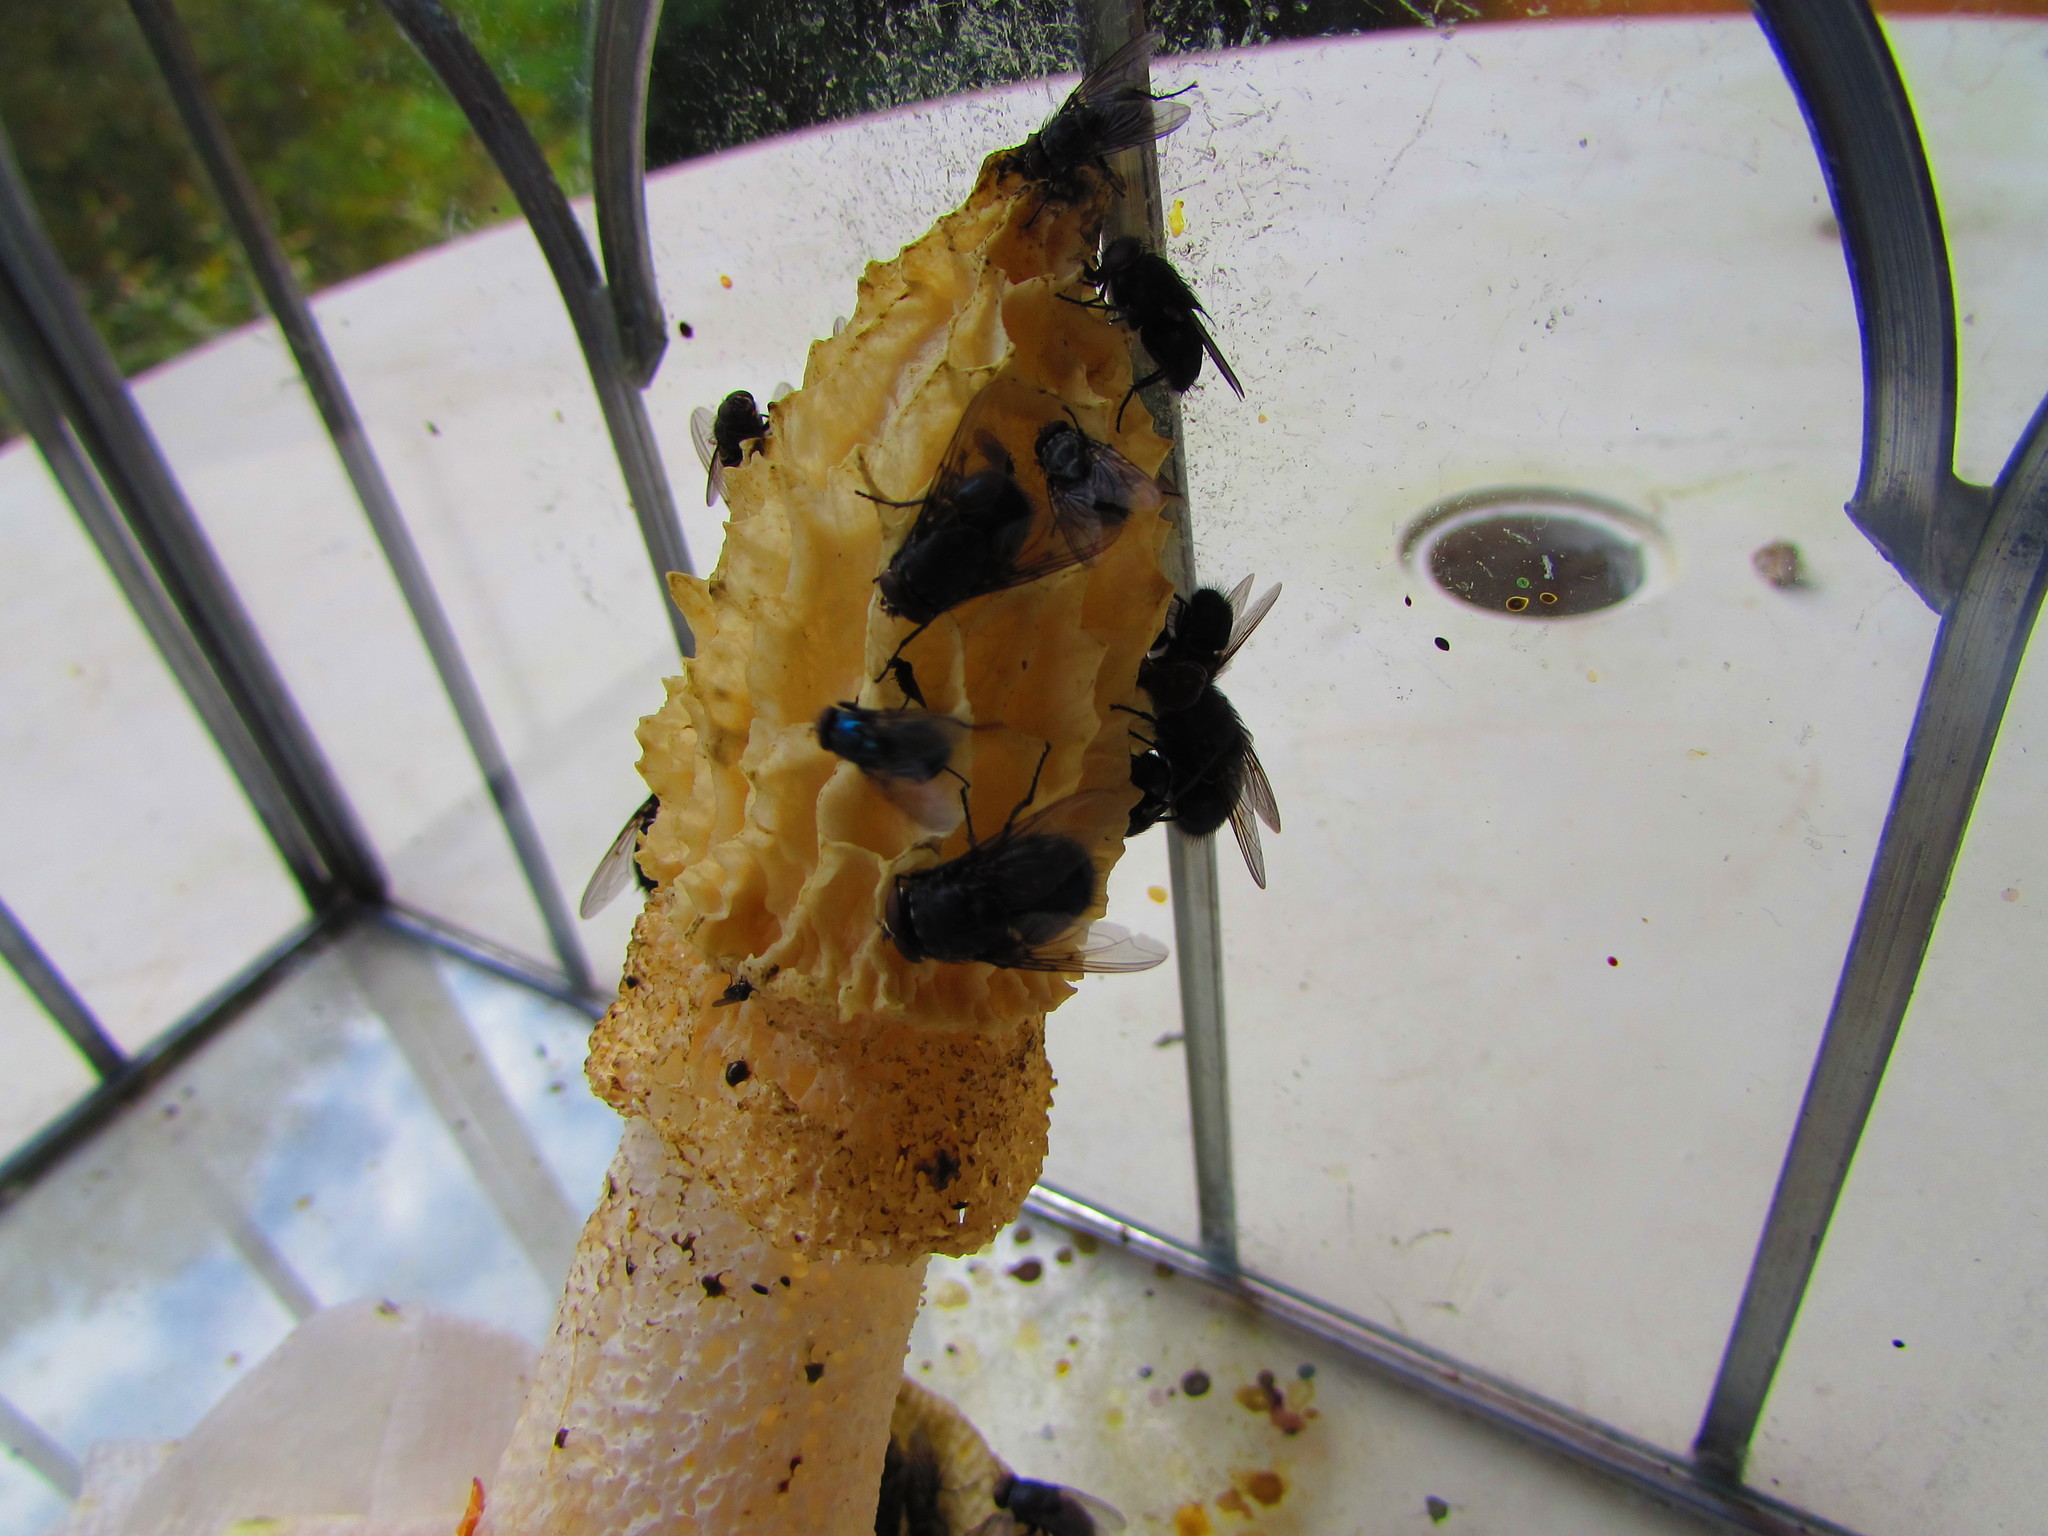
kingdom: Fungi
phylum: Basidiomycota
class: Agaricomycetes
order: Phallales
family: Phallaceae
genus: Phallus
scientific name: Phallus indusiatus
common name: Bridal veil stinkhorn
